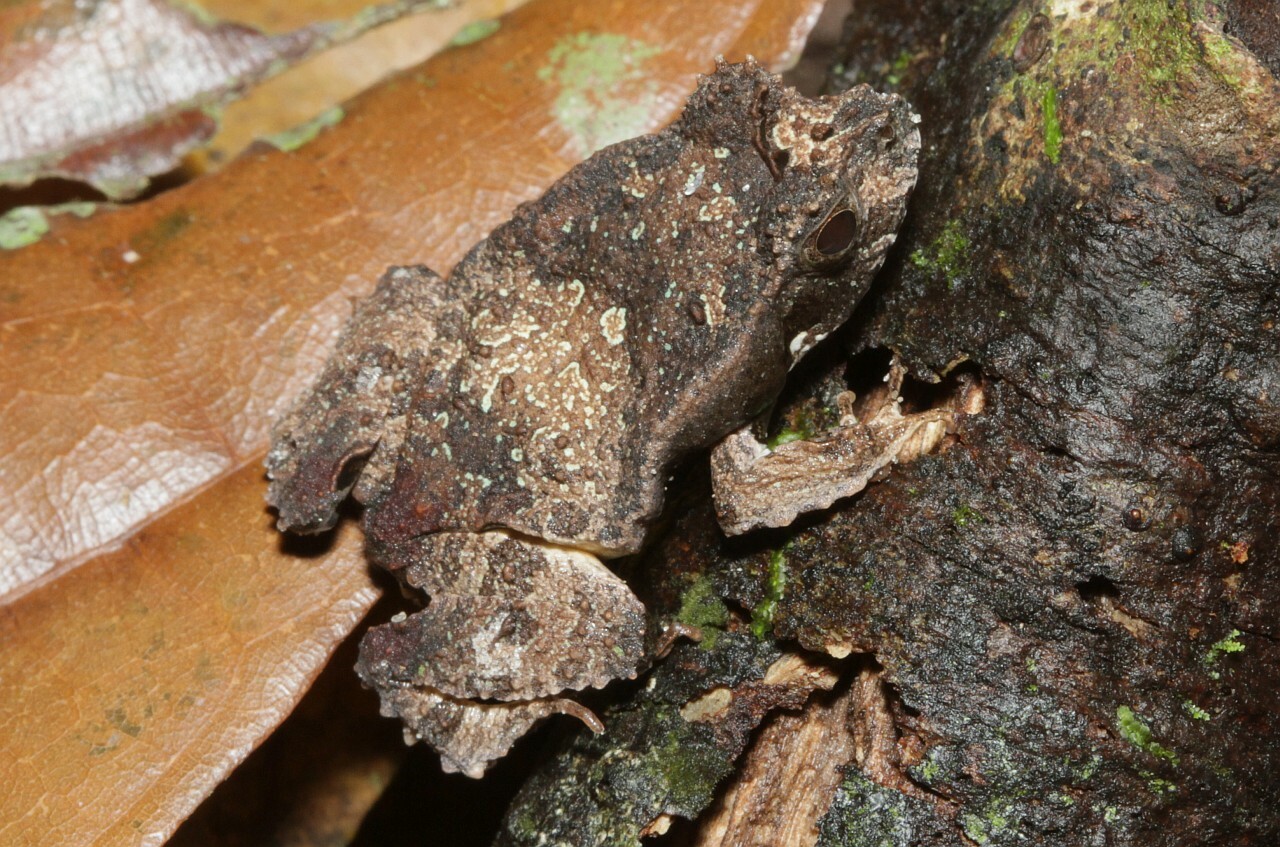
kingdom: Animalia
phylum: Chordata
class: Amphibia
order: Anura
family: Leptodactylidae
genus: Edalorhina
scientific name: Edalorhina perezi
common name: Perez’s snouted frog
